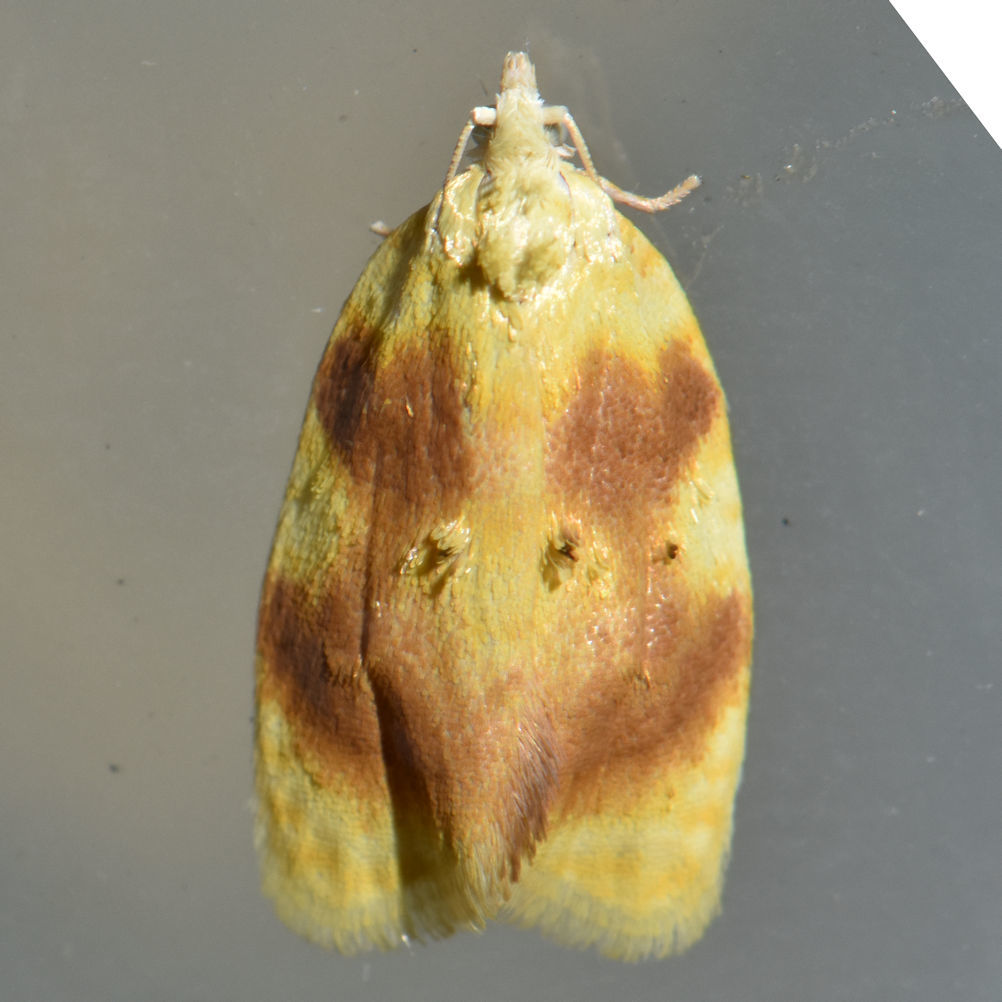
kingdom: Animalia
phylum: Arthropoda
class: Insecta
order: Lepidoptera
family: Tortricidae
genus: Acleris
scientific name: Acleris semipurpurana
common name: Oak leaftier moth
